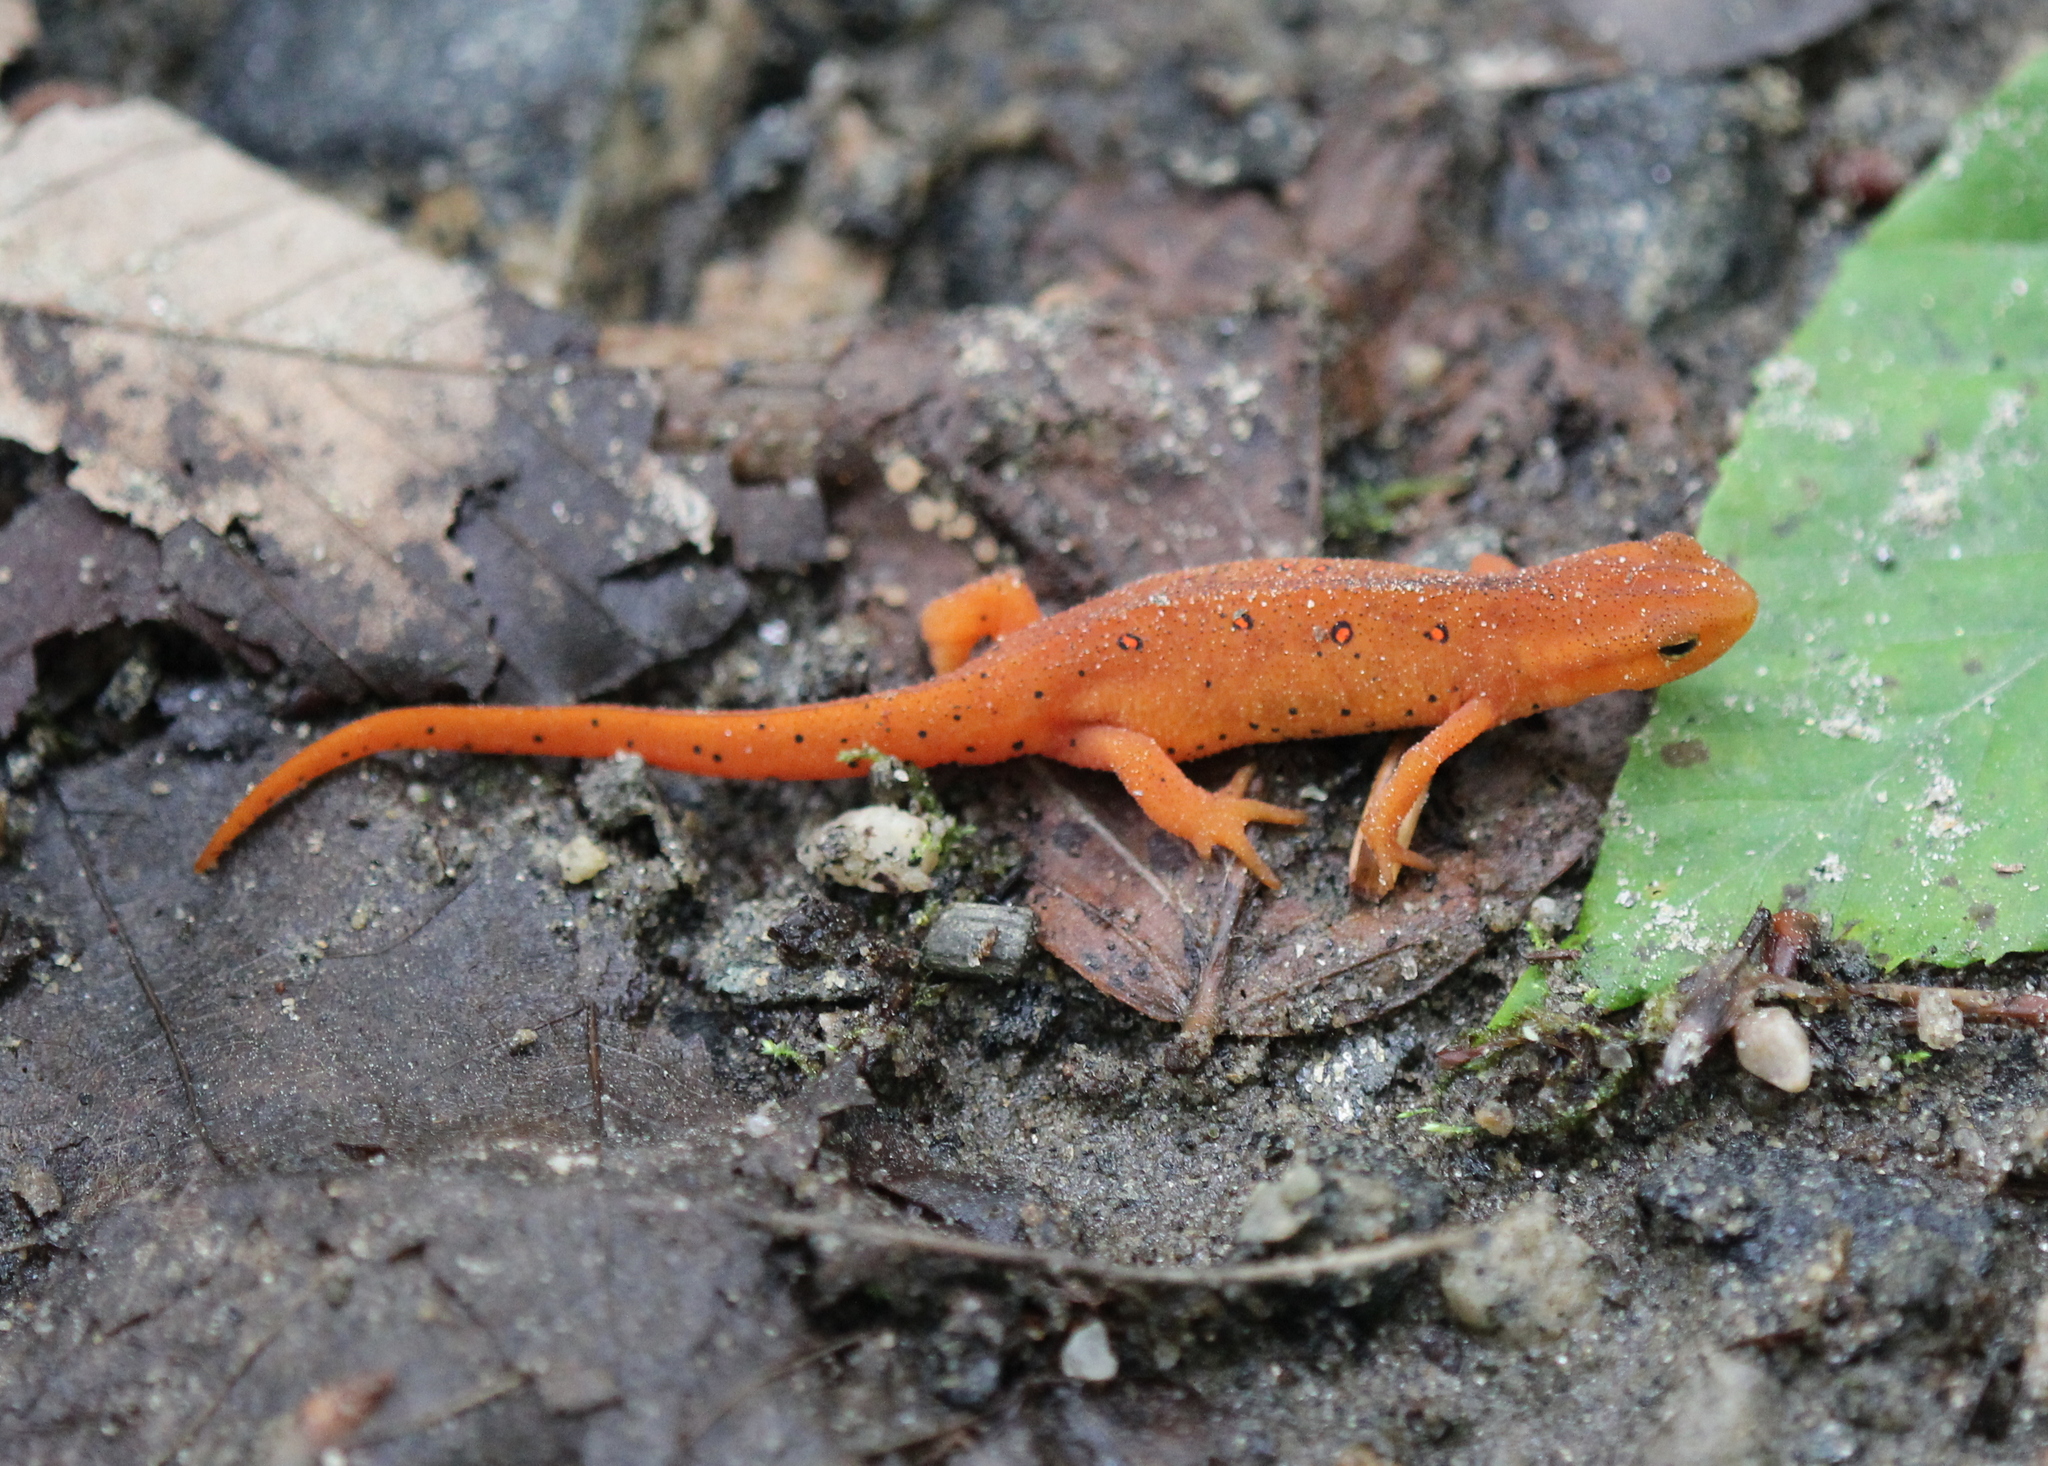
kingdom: Animalia
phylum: Chordata
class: Amphibia
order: Caudata
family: Salamandridae
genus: Notophthalmus
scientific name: Notophthalmus viridescens
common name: Eastern newt
